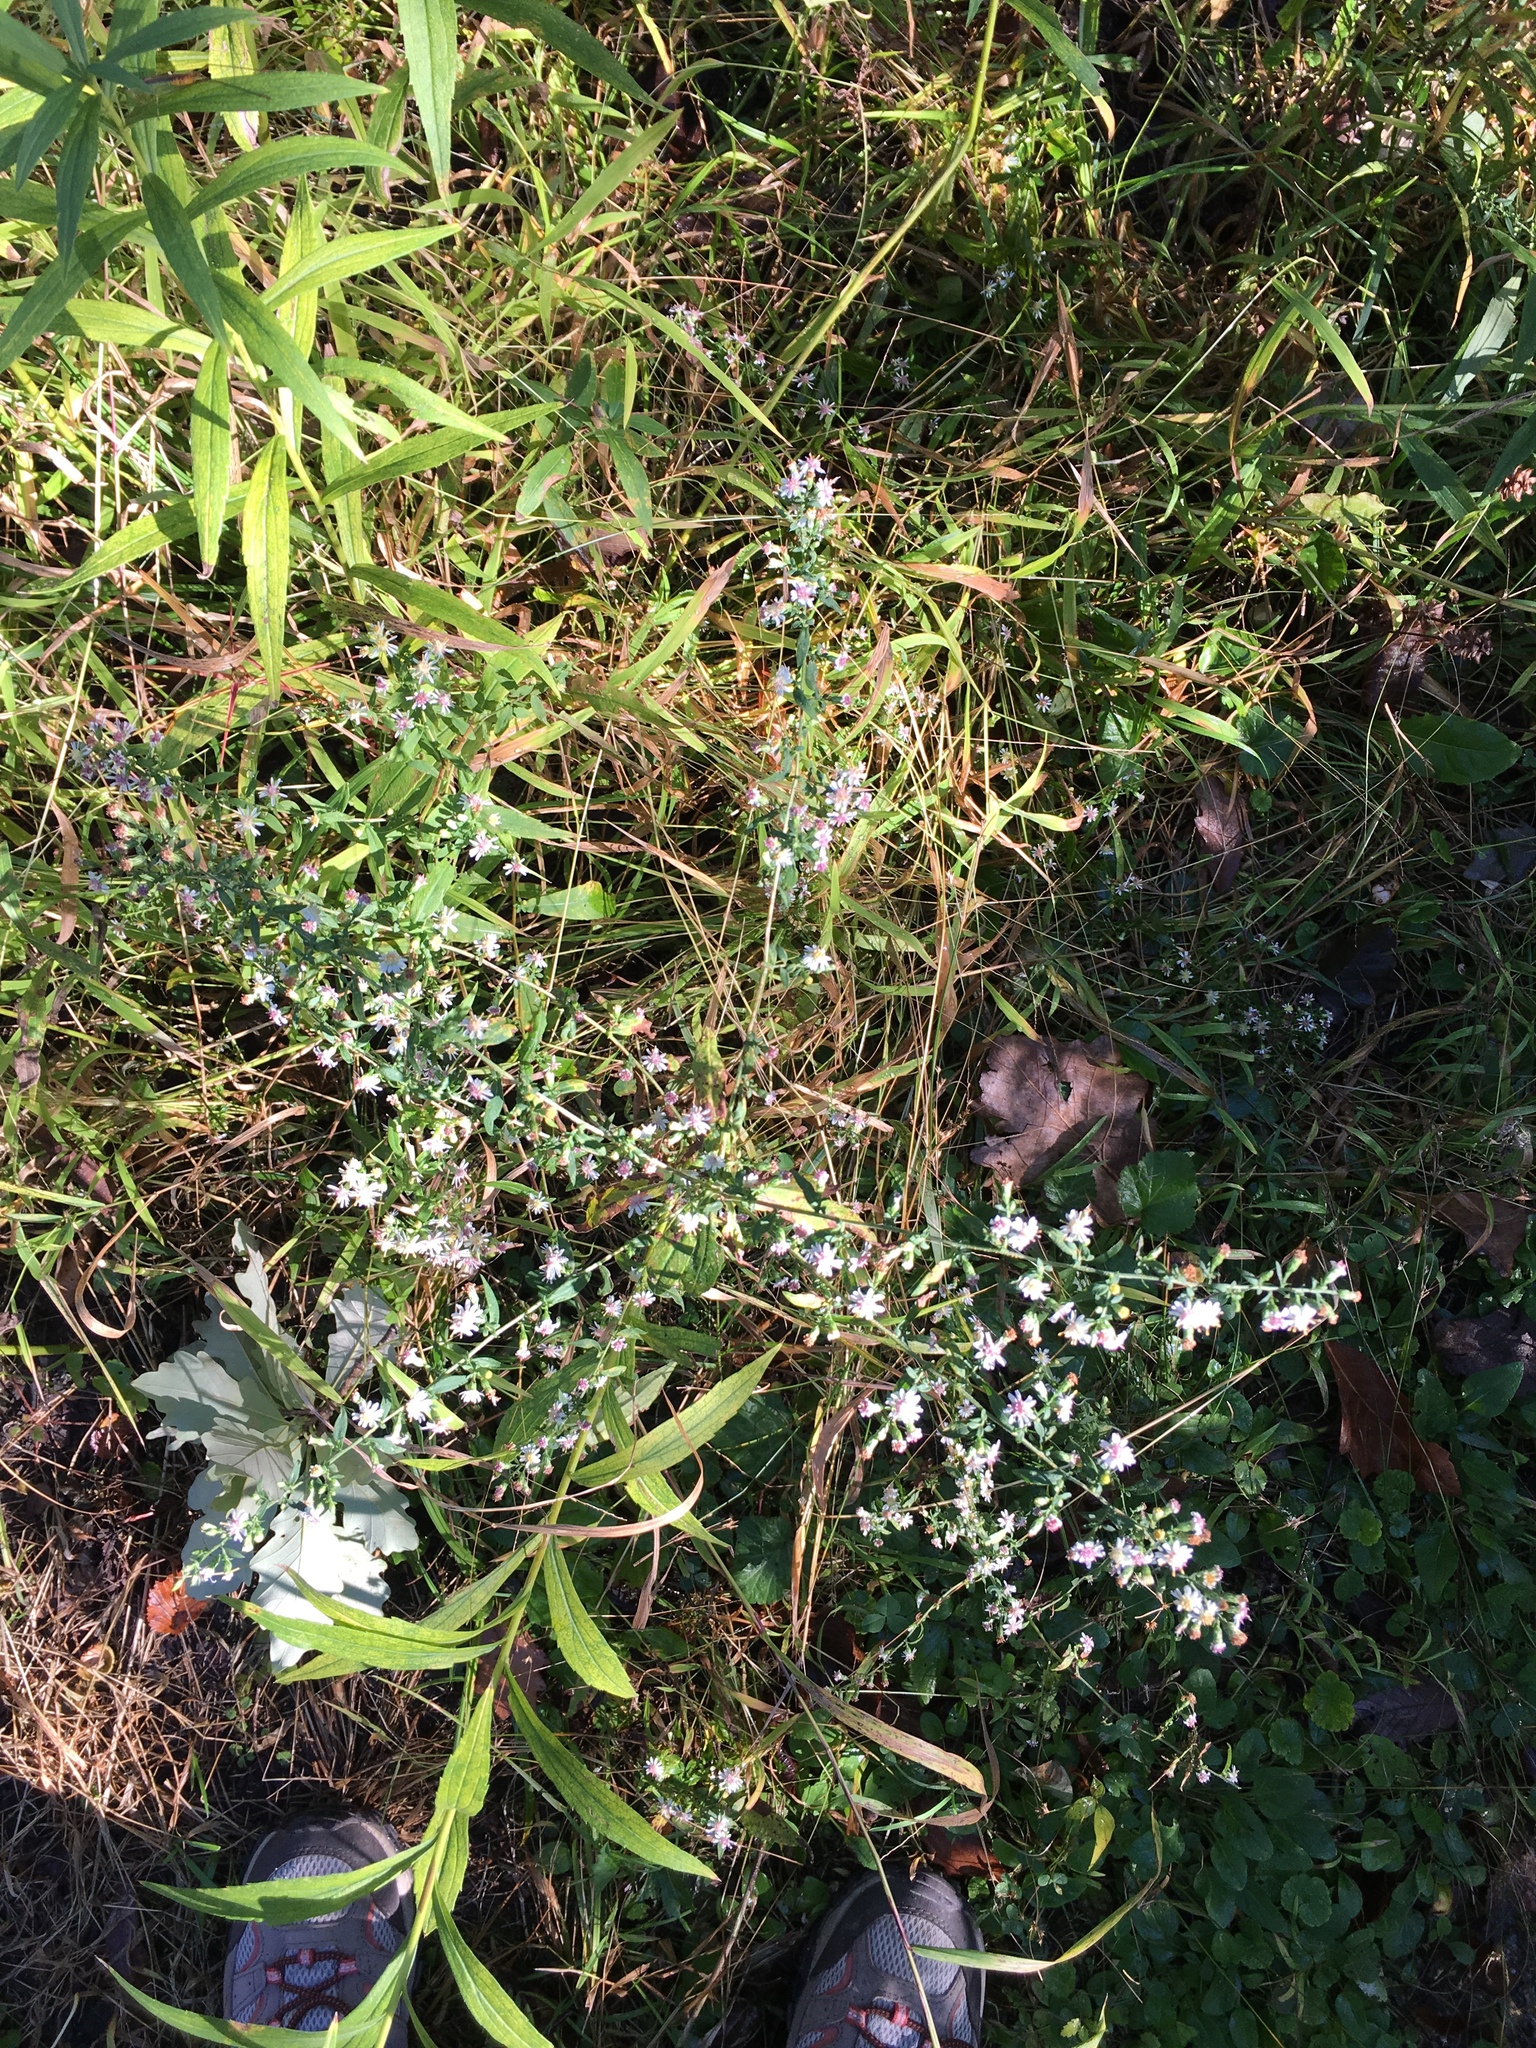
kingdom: Plantae
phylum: Tracheophyta
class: Magnoliopsida
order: Asterales
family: Asteraceae
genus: Symphyotrichum
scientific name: Symphyotrichum lateriflorum
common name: Calico aster
